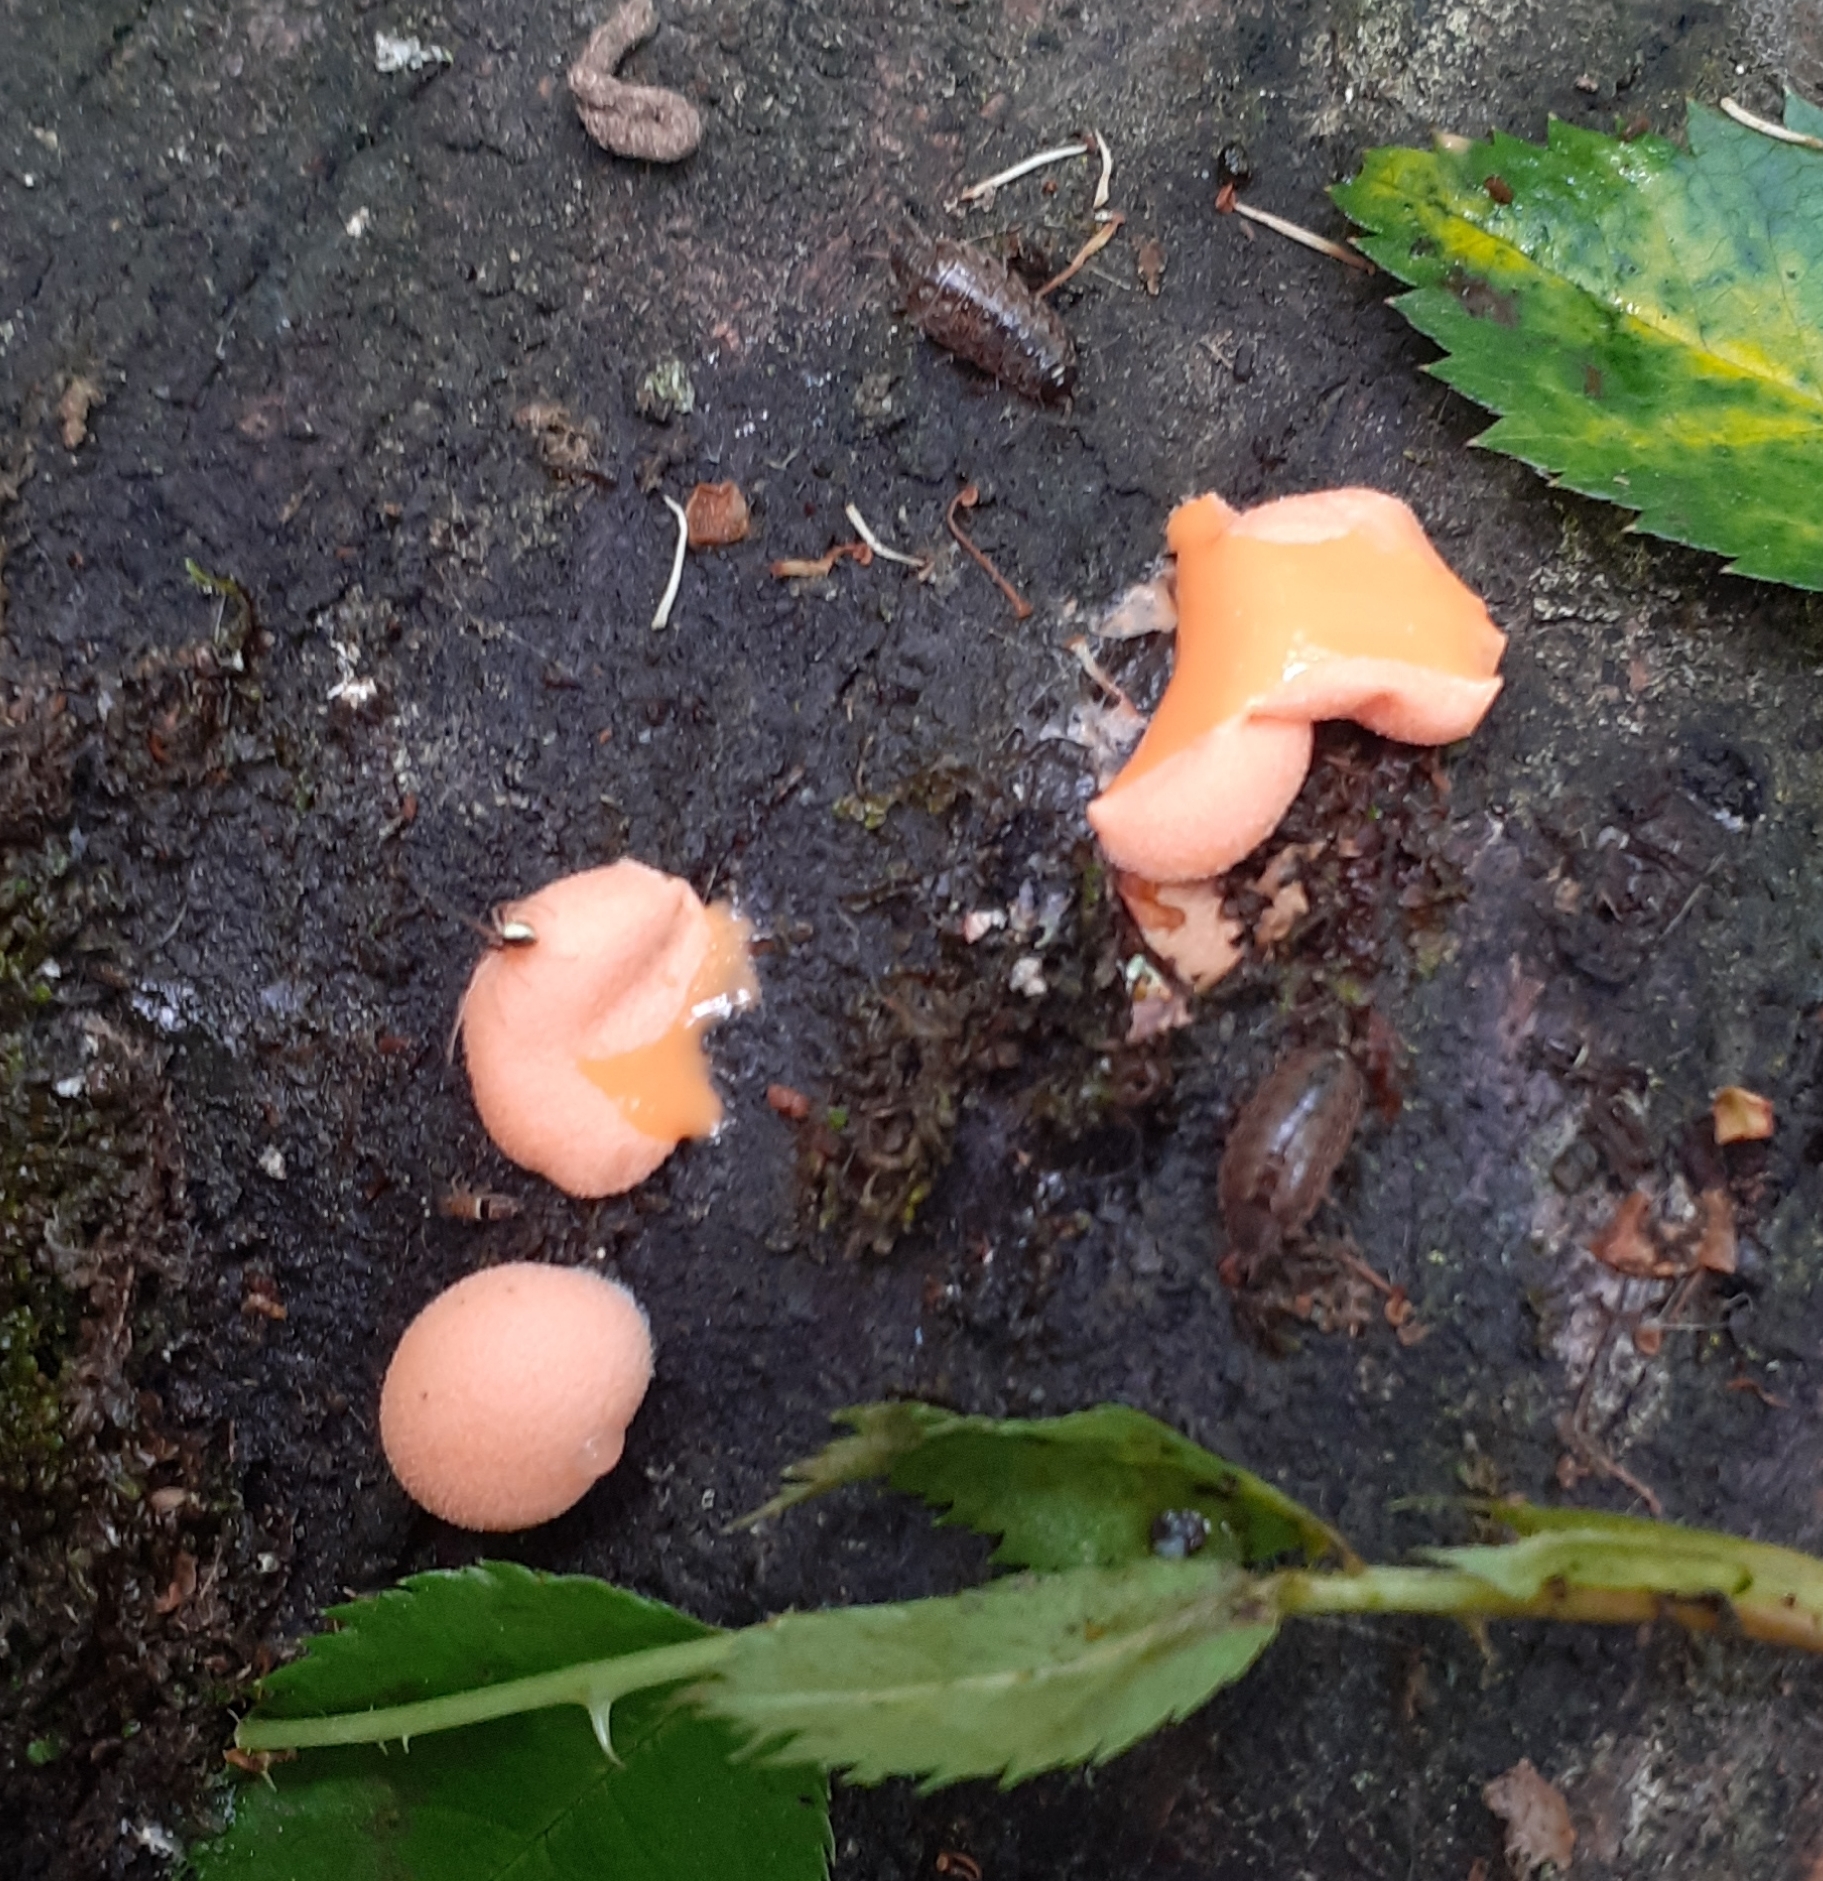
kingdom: Protozoa
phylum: Mycetozoa
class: Myxomycetes
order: Cribrariales
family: Tubiferaceae
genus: Lycogala
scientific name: Lycogala epidendrum
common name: Wolf's milk
